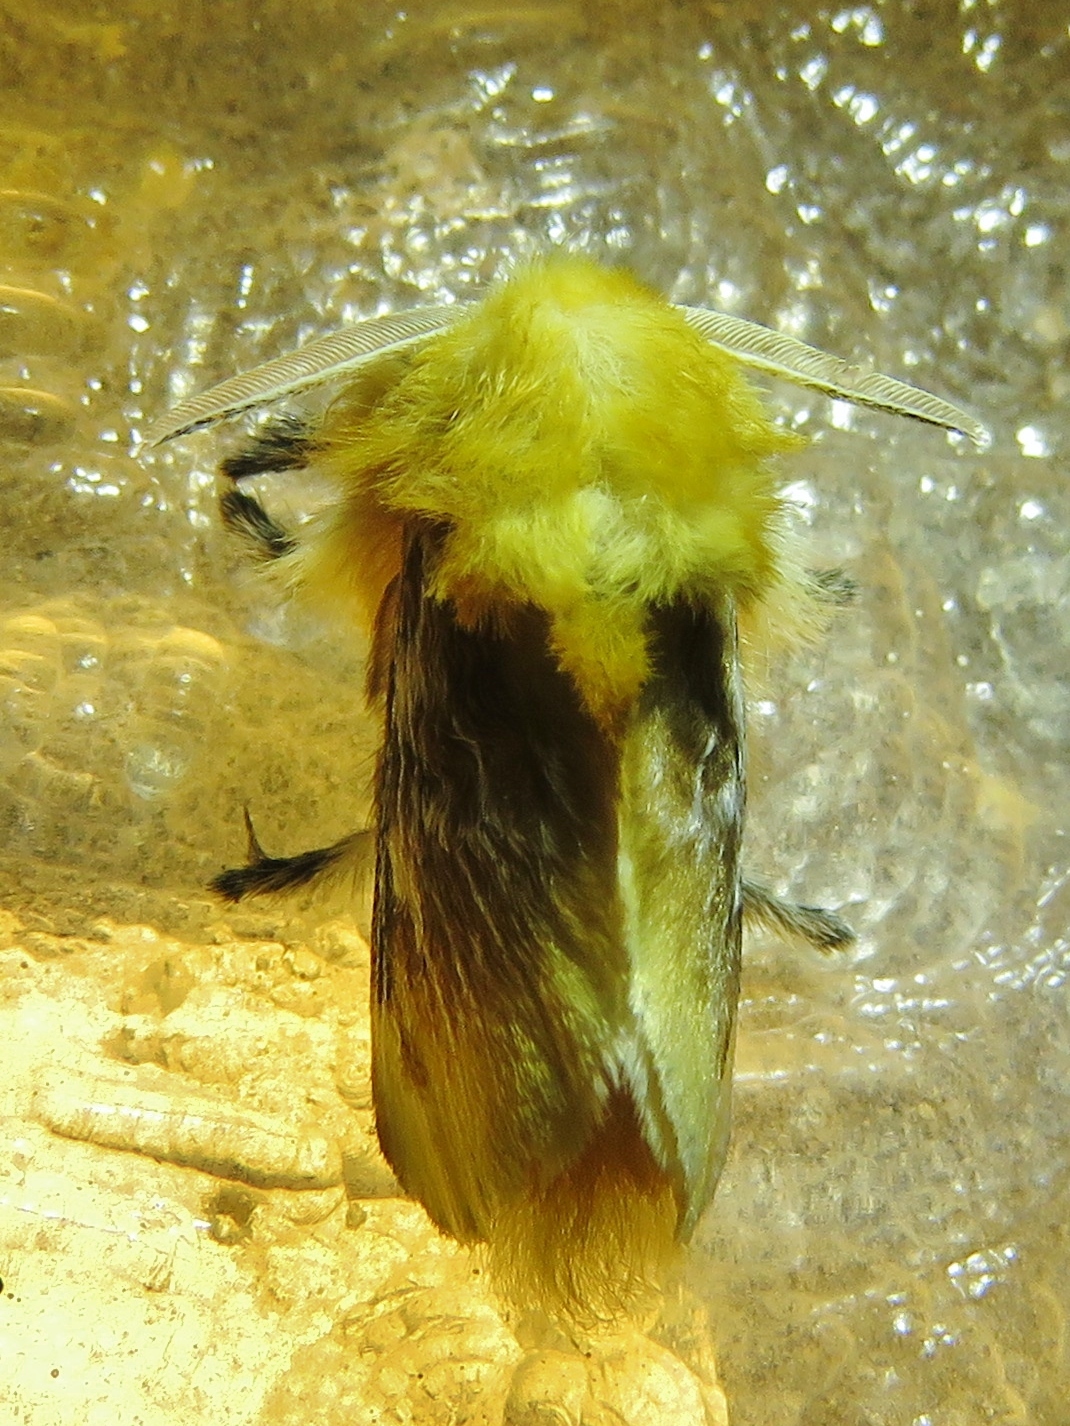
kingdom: Animalia
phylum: Arthropoda
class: Insecta
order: Lepidoptera
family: Megalopygidae
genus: Megalopyge
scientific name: Megalopyge opercularis
